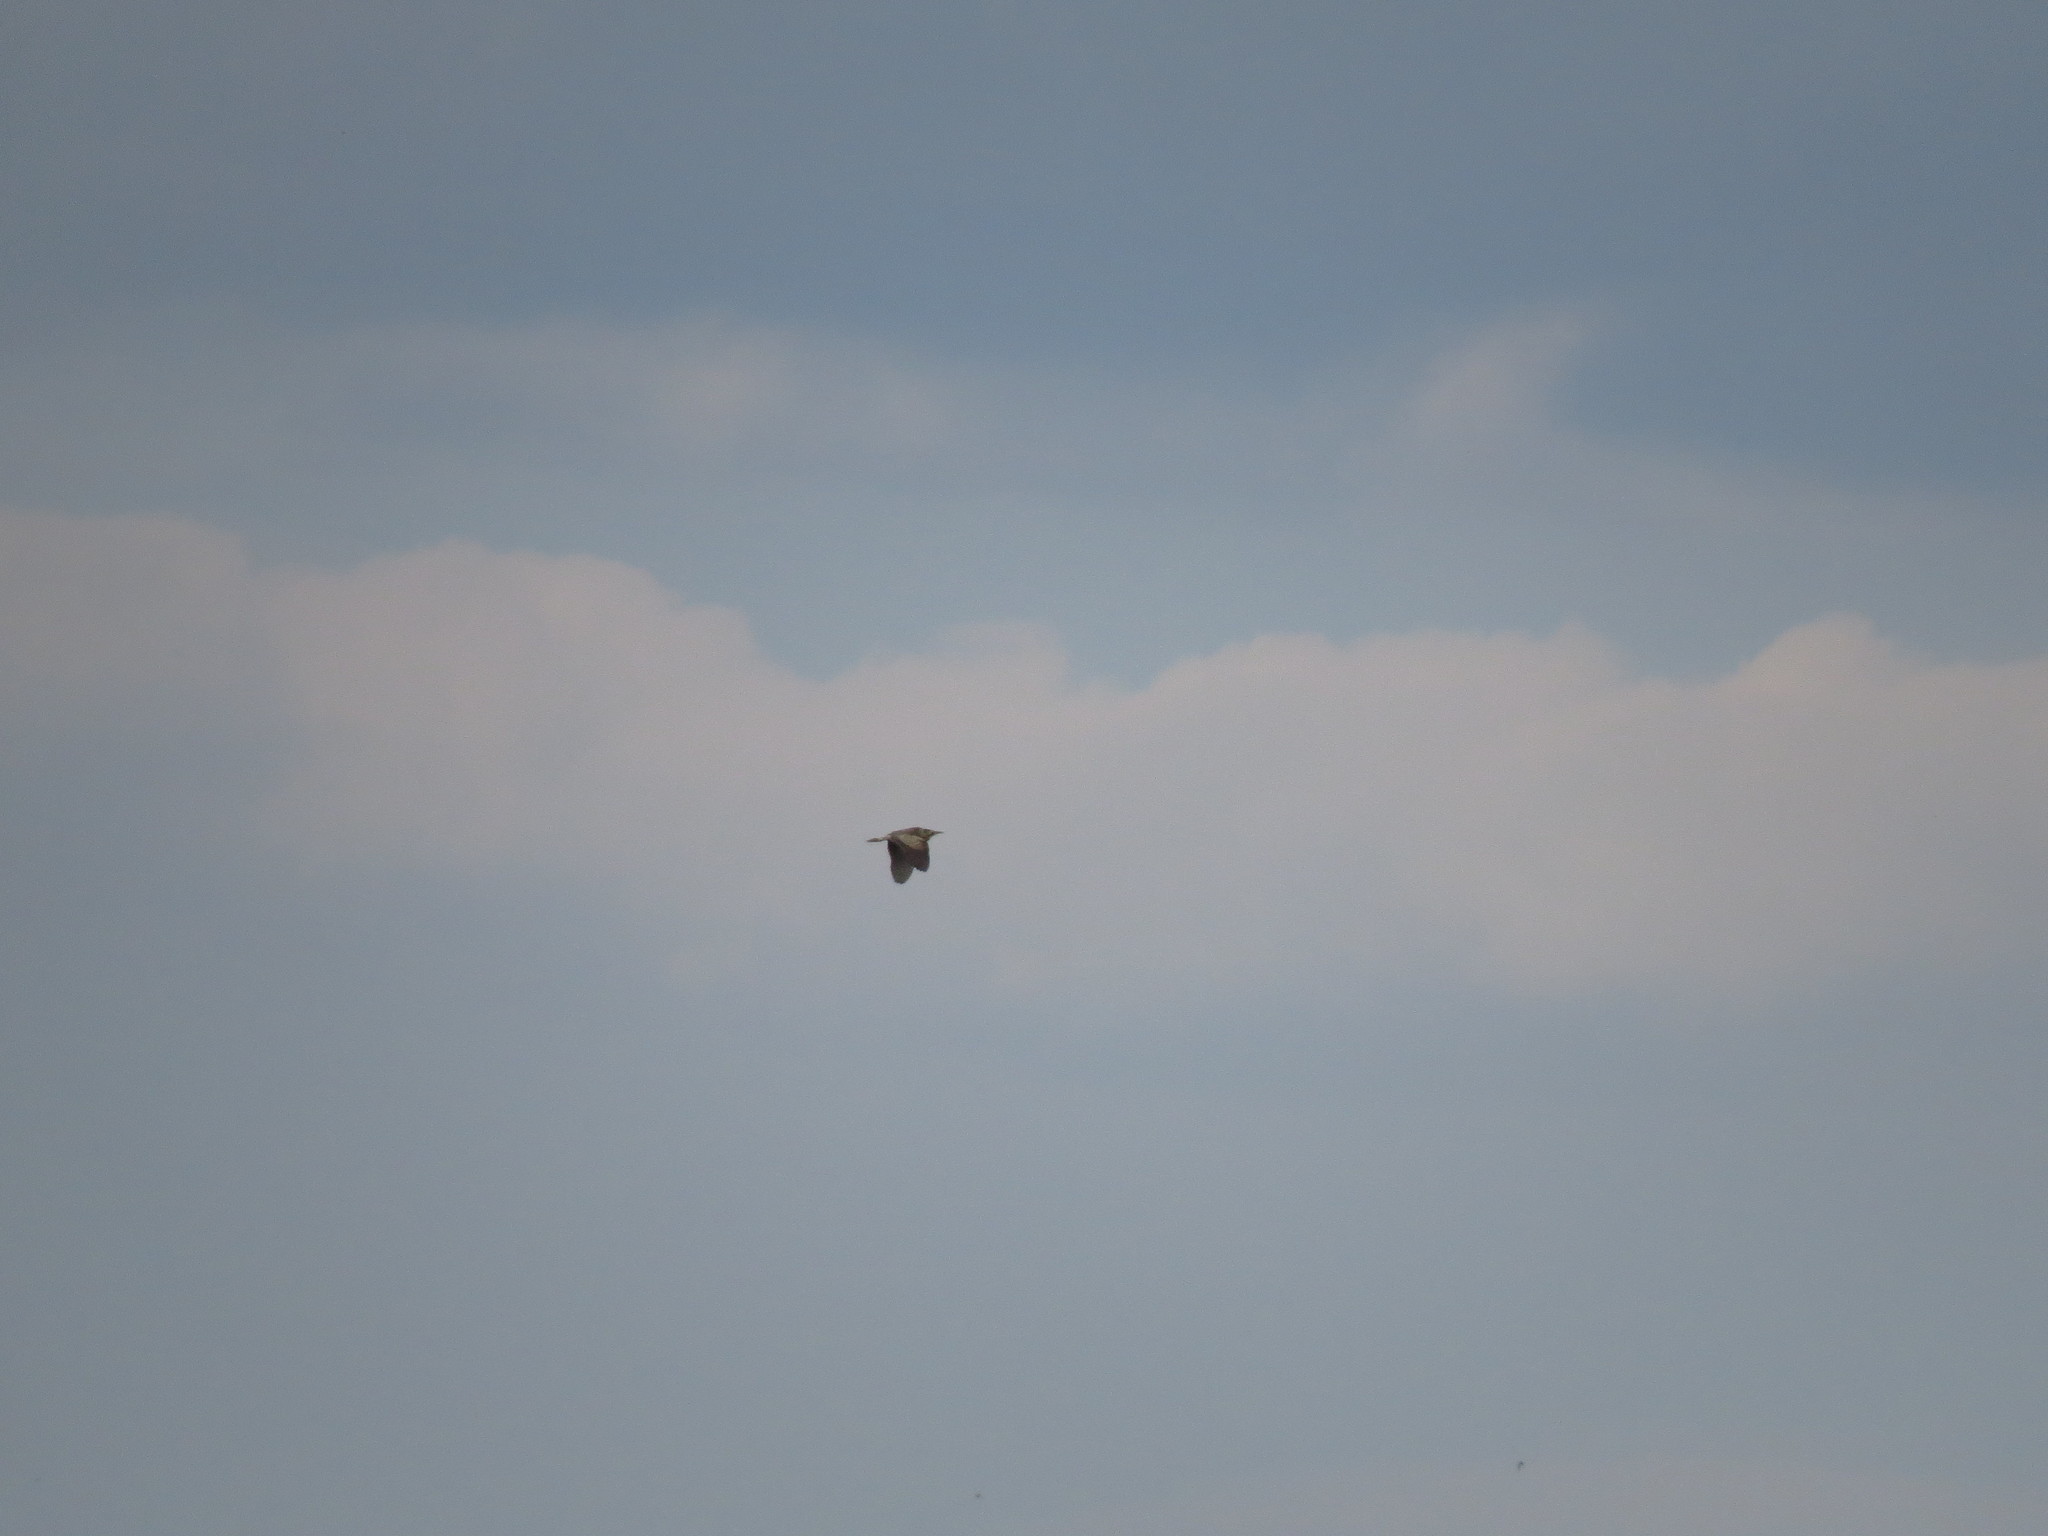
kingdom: Animalia
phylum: Chordata
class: Aves
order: Pelecaniformes
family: Ardeidae
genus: Botaurus
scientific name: Botaurus stellaris
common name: Eurasian bittern
